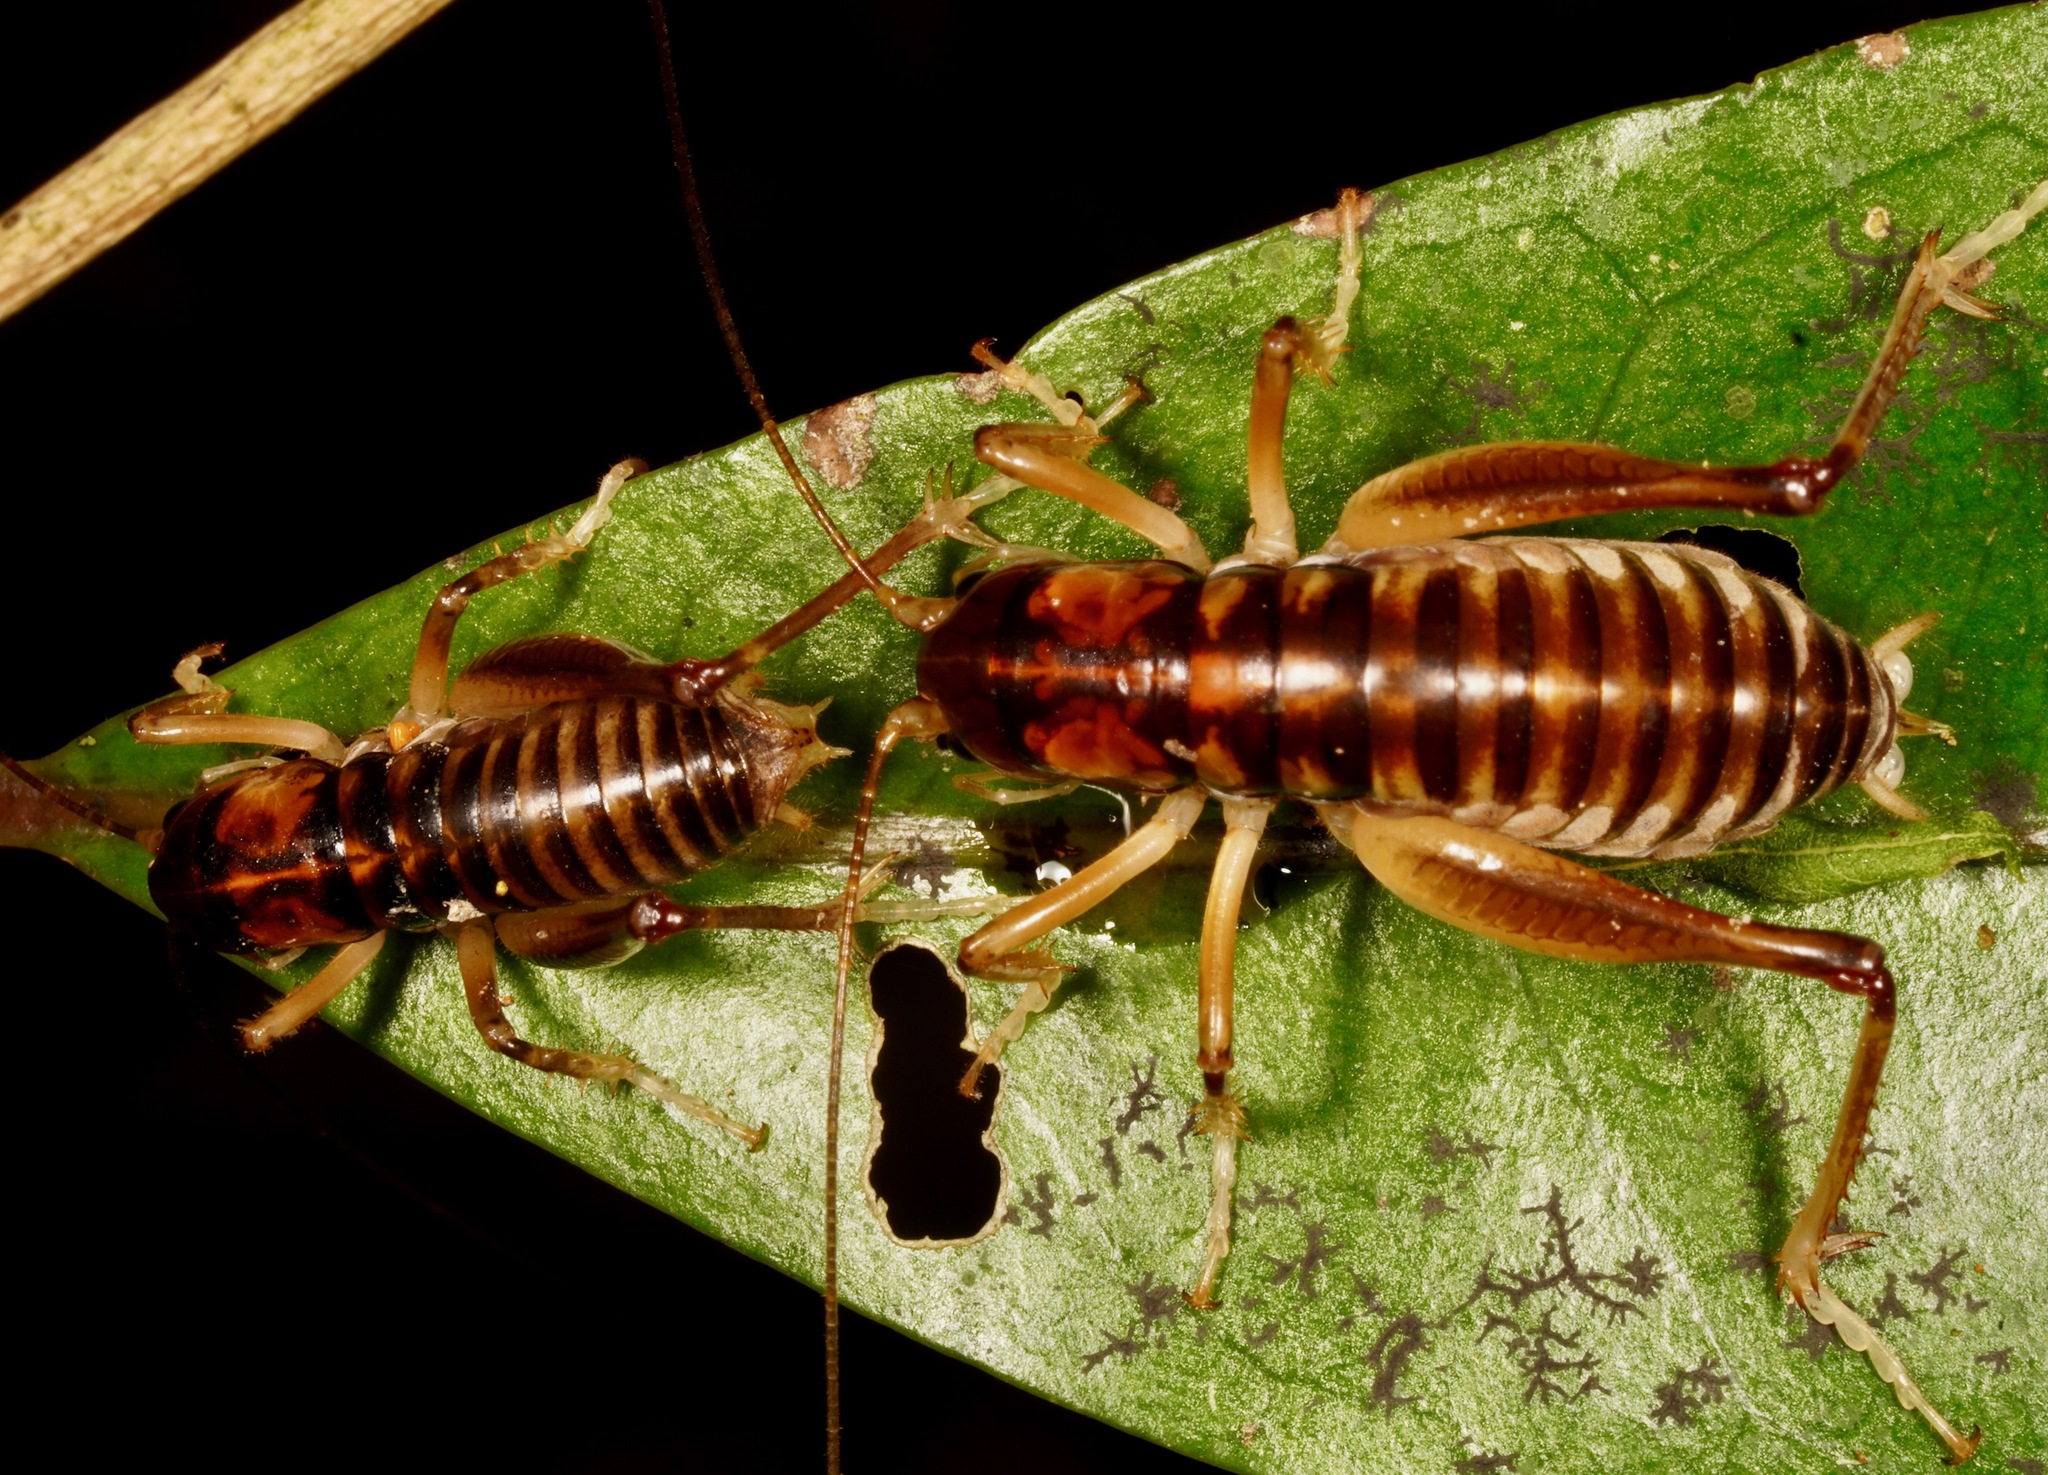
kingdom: Animalia
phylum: Arthropoda
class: Insecta
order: Orthoptera
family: Anostostomatidae
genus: Hemiandrus
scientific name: Hemiandrus pallitarsis
